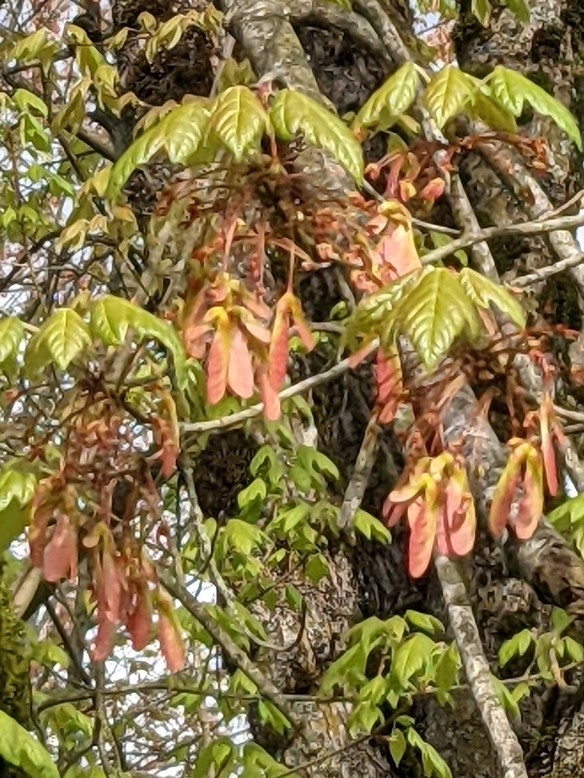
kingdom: Plantae
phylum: Tracheophyta
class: Magnoliopsida
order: Sapindales
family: Sapindaceae
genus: Acer
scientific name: Acer circinatum
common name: Vine maple
